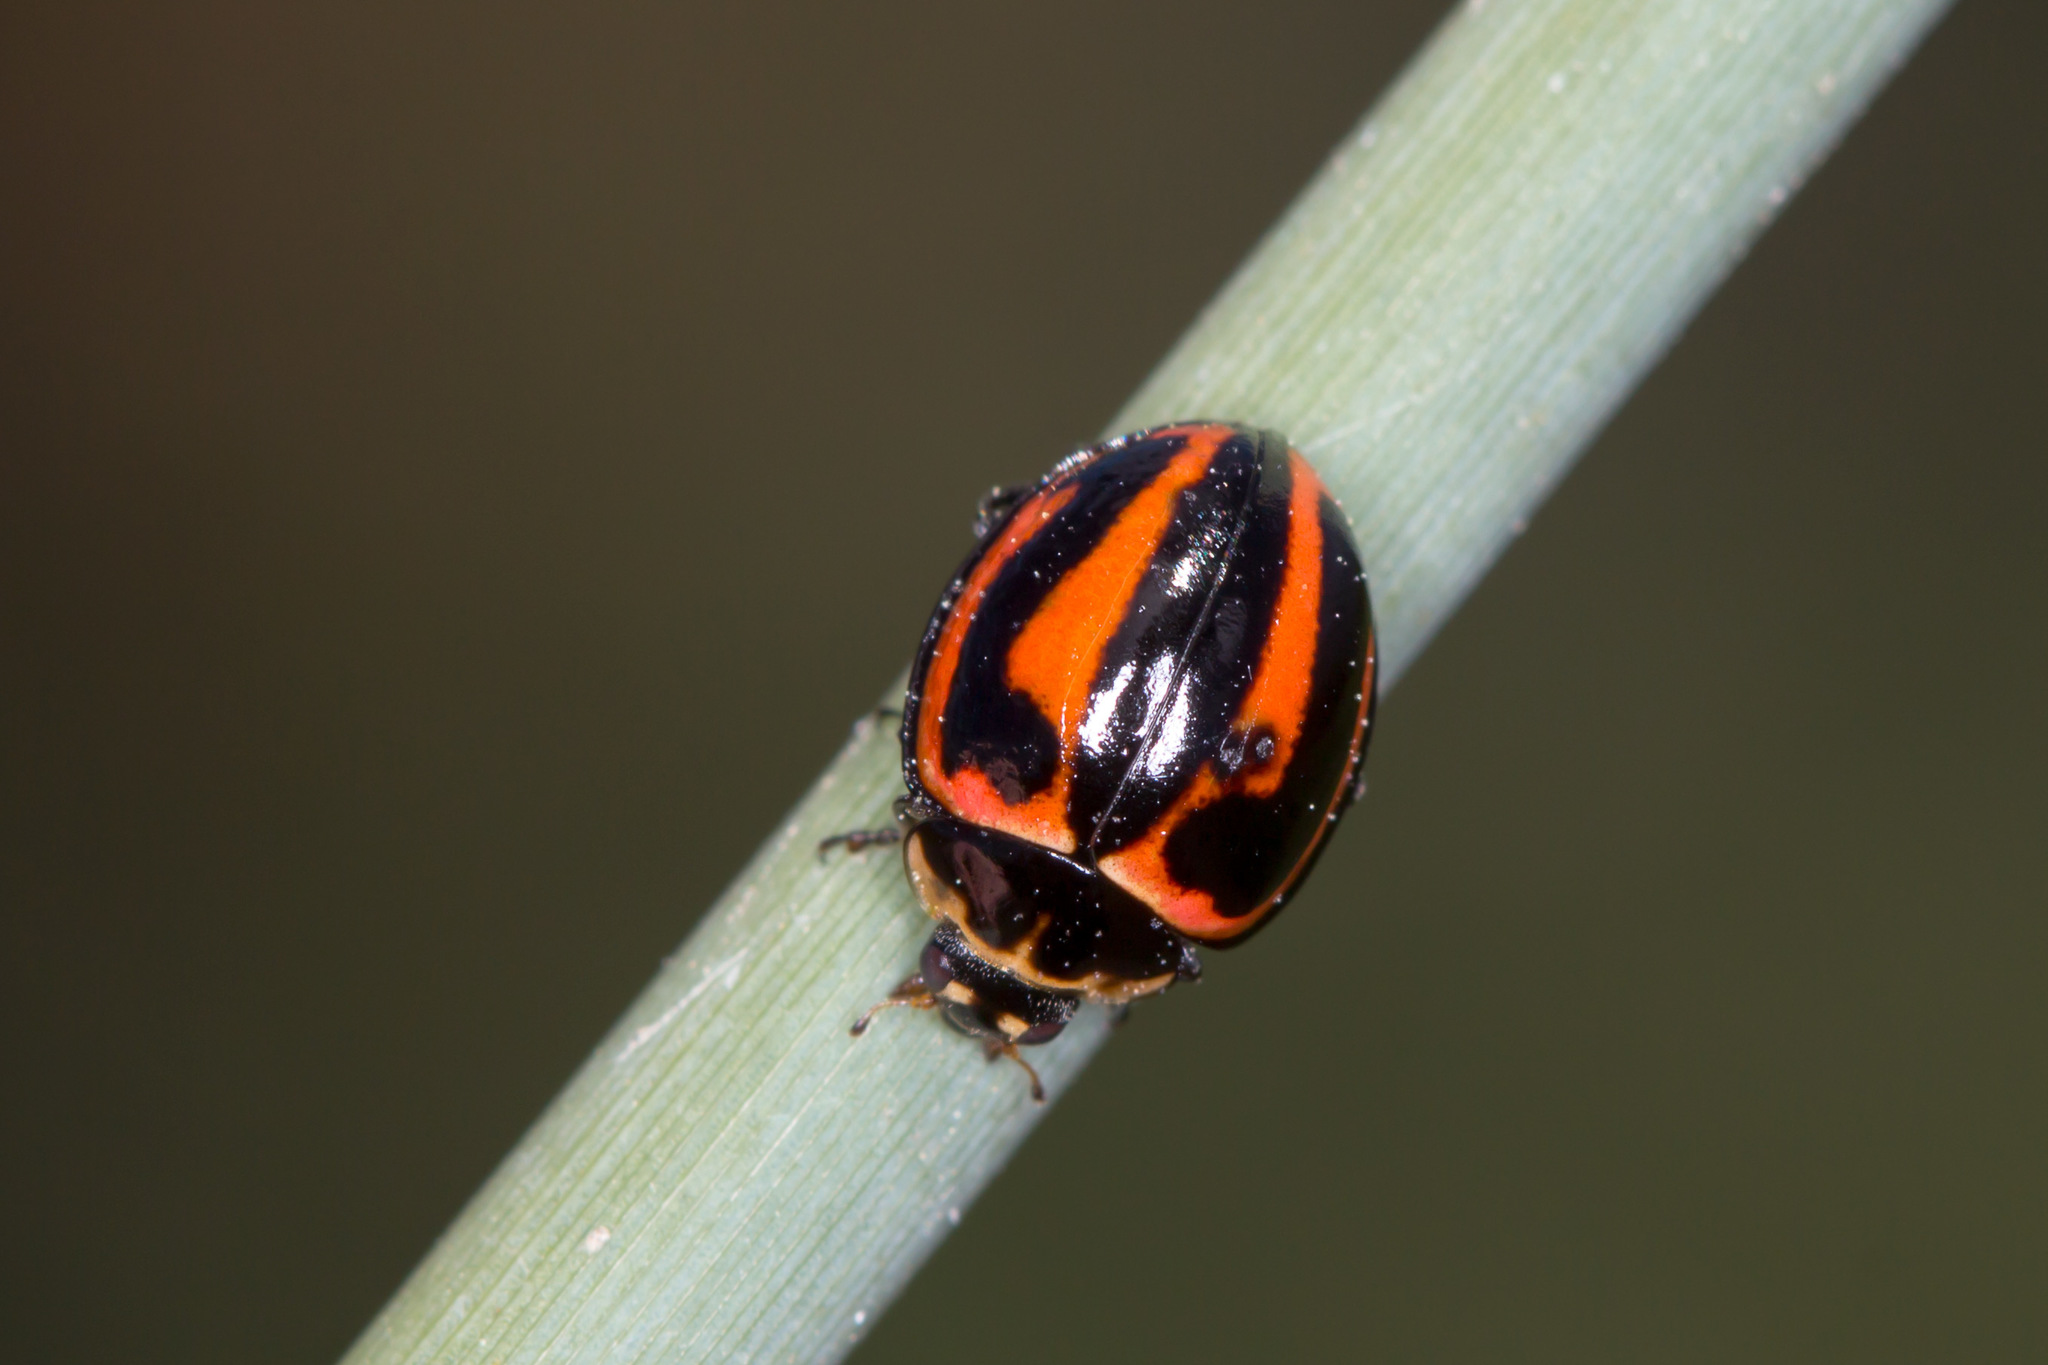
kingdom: Animalia
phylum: Arthropoda
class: Insecta
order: Coleoptera
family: Coccinellidae
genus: Micraspis
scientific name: Micraspis frenata
